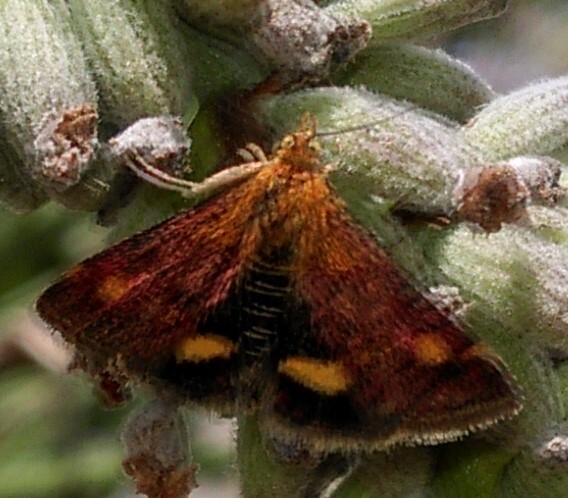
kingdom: Animalia
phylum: Arthropoda
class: Insecta
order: Lepidoptera
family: Crambidae
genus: Pyrausta
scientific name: Pyrausta aurata
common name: Small purple & gold
